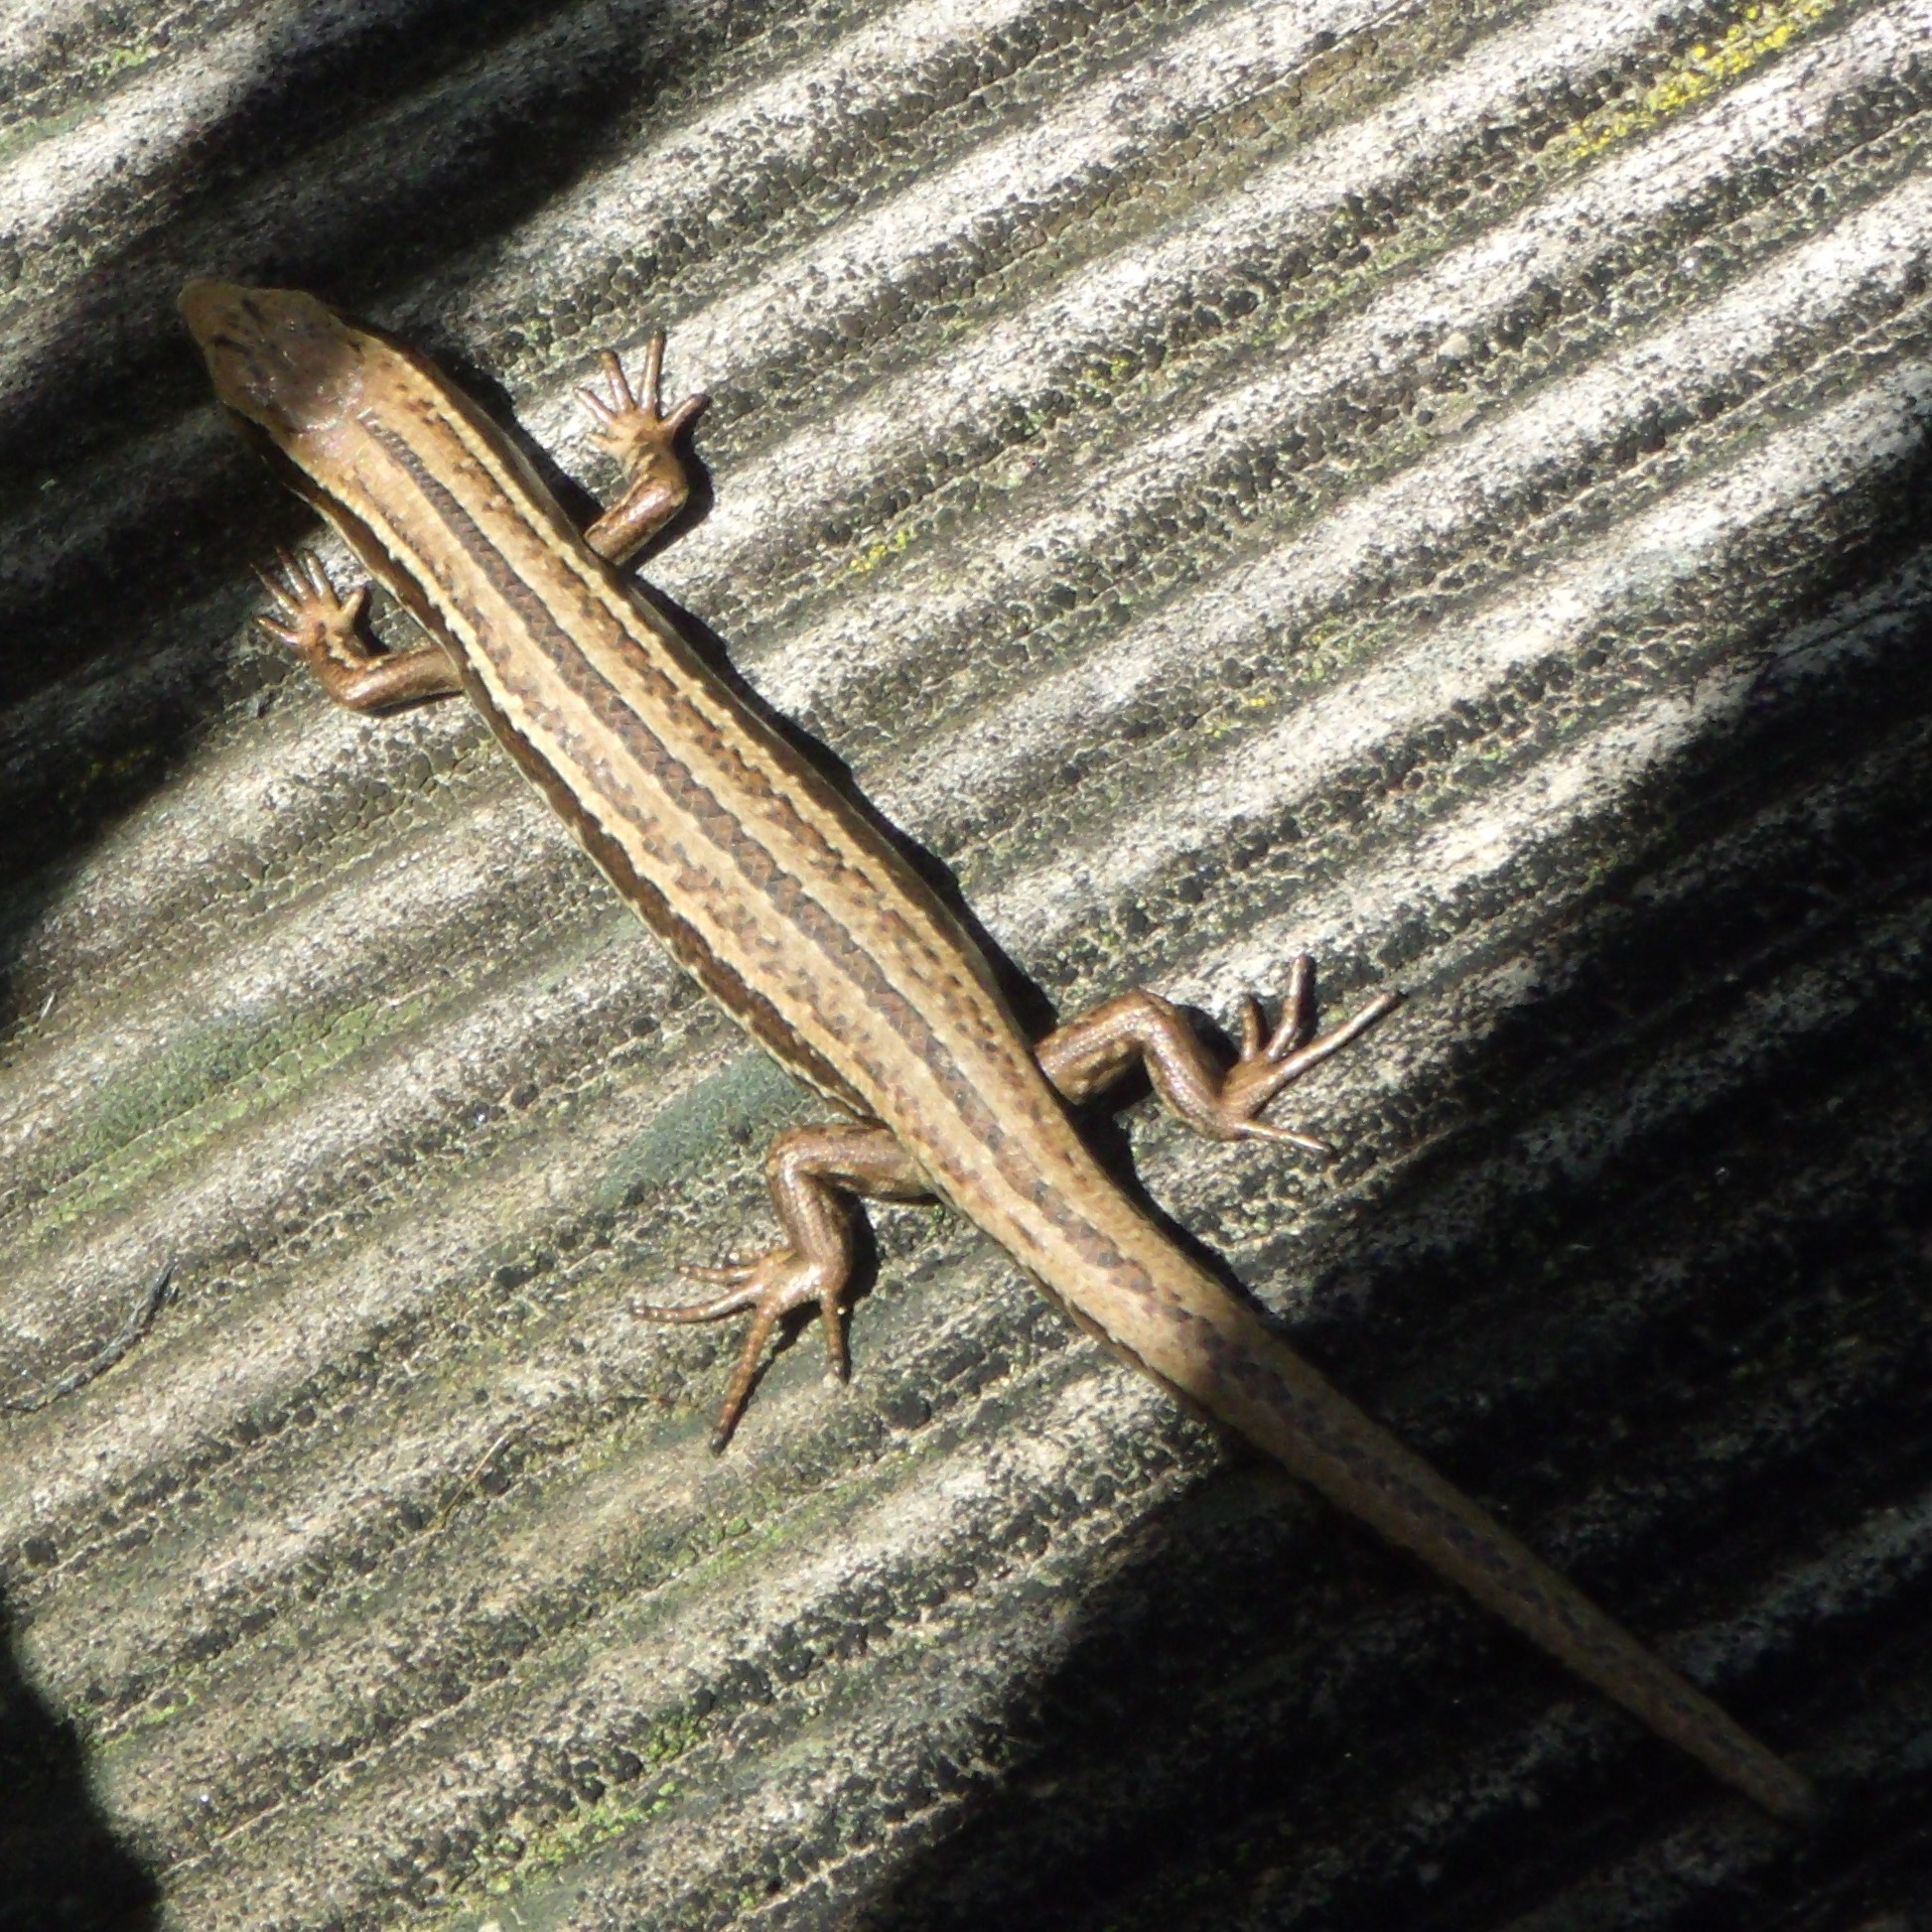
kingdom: Animalia
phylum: Chordata
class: Squamata
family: Scincidae
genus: Oligosoma
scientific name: Oligosoma polychroma
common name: Common new zealand skink
